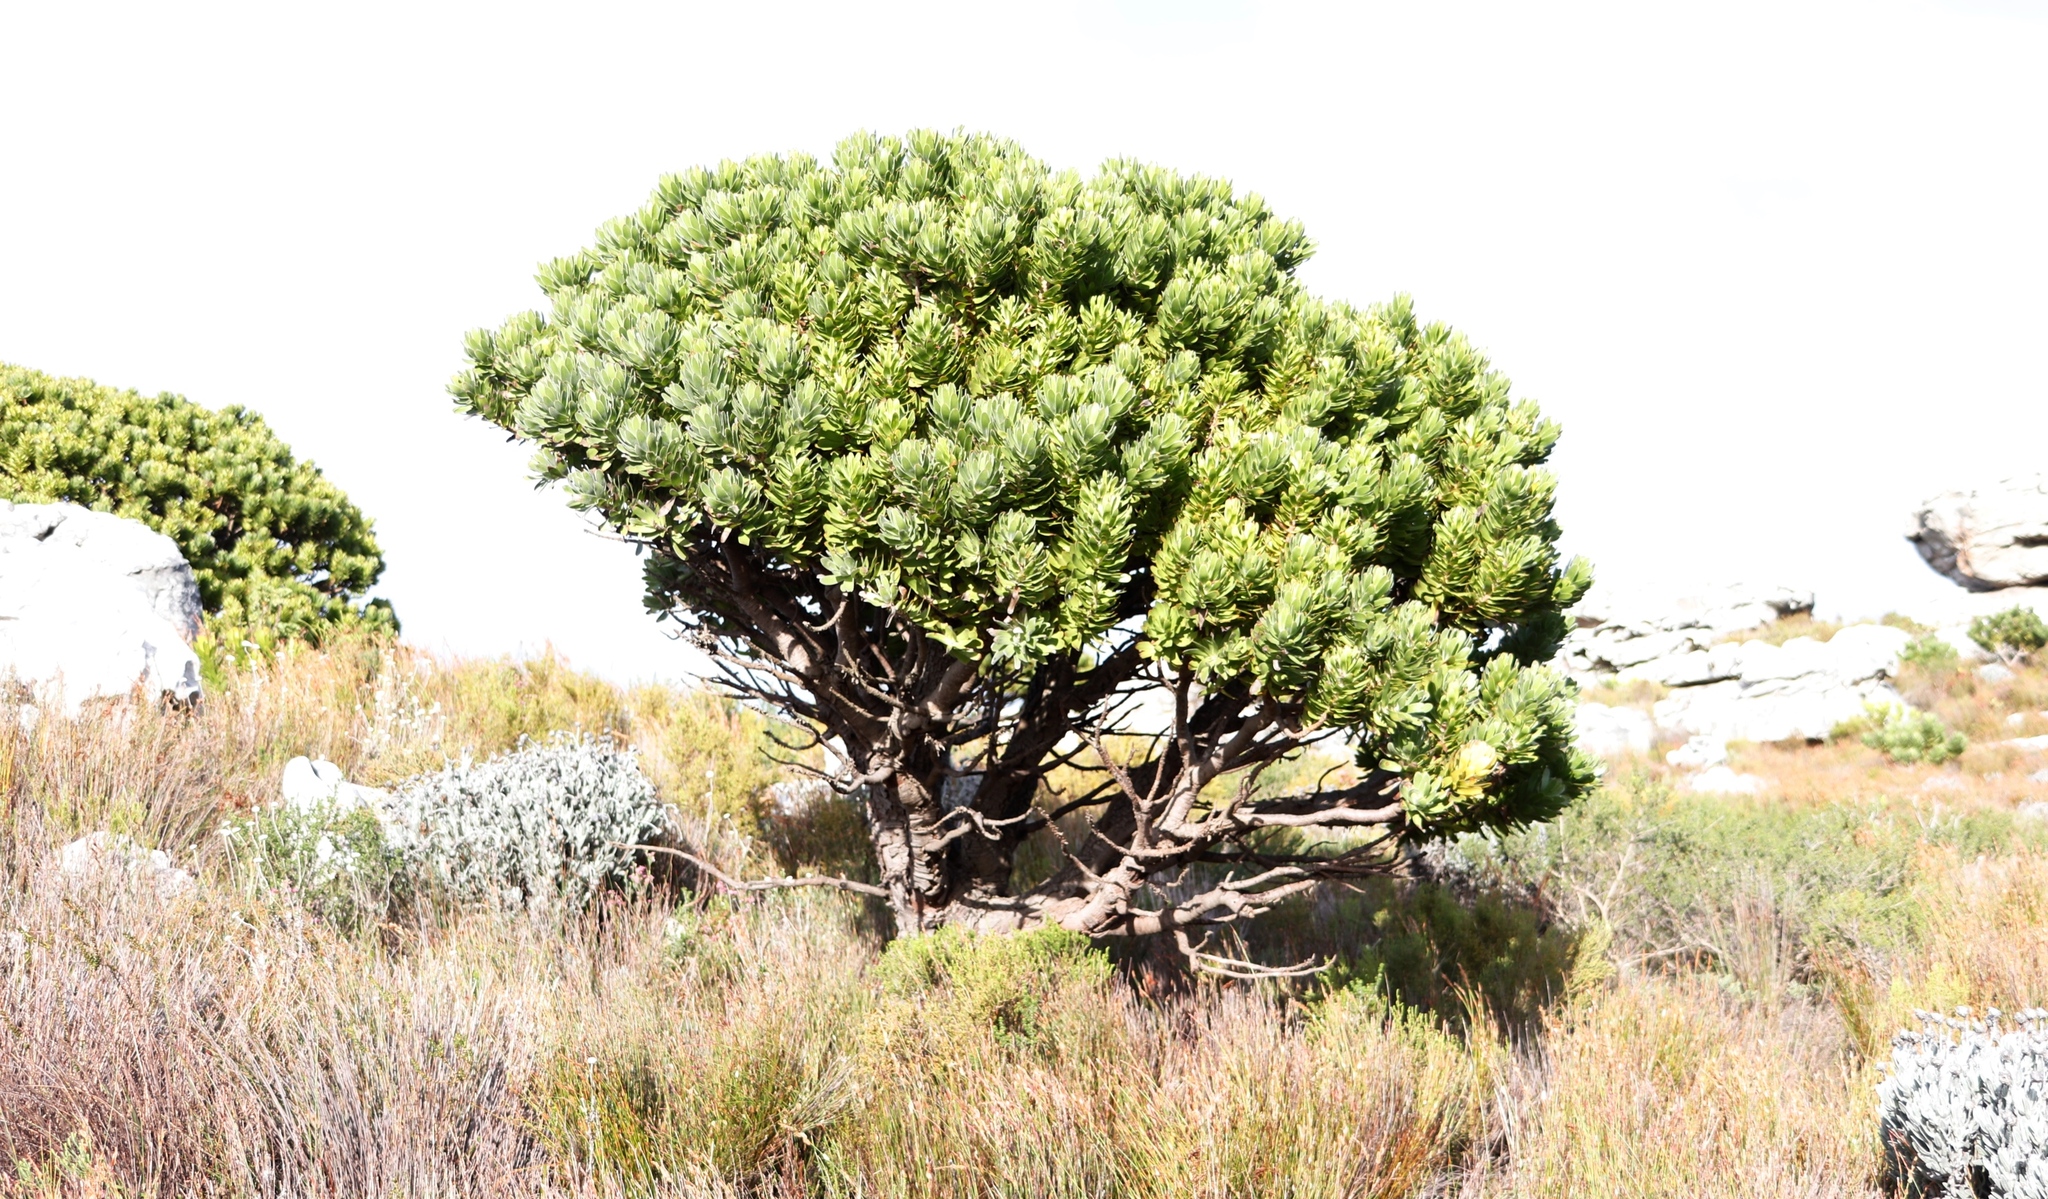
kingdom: Plantae
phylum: Tracheophyta
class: Magnoliopsida
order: Proteales
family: Proteaceae
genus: Mimetes
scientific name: Mimetes fimbriifolius
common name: Fringed bottlebrush
